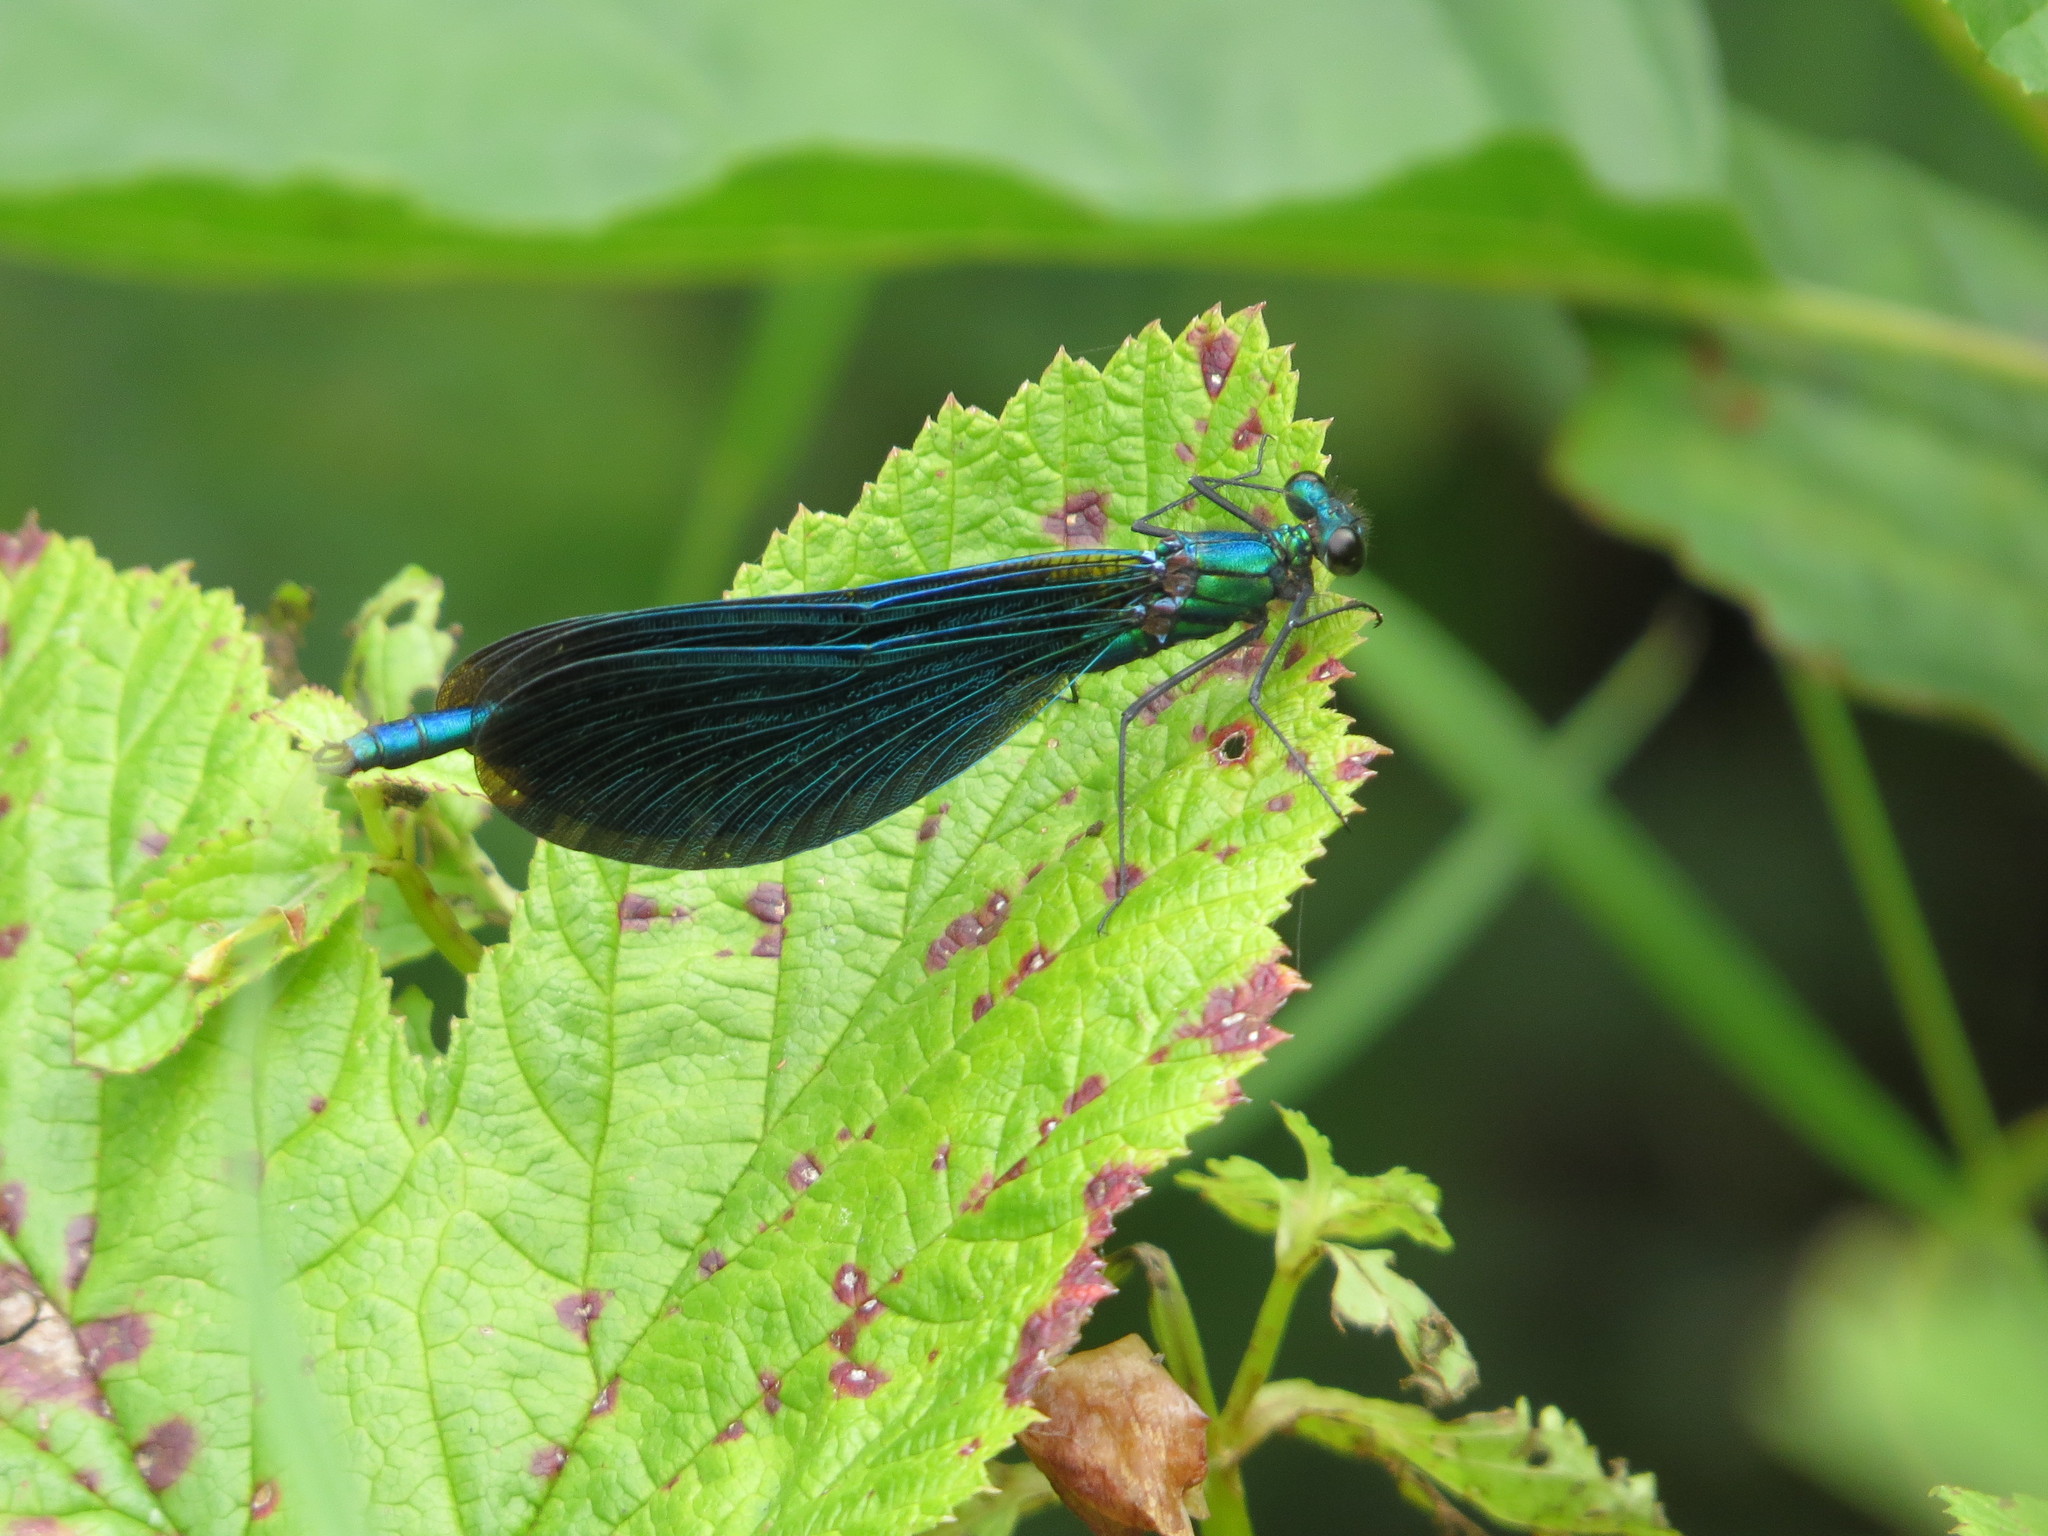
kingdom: Animalia
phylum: Arthropoda
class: Insecta
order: Odonata
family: Calopterygidae
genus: Calopteryx
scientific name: Calopteryx virgo
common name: Beautiful demoiselle
